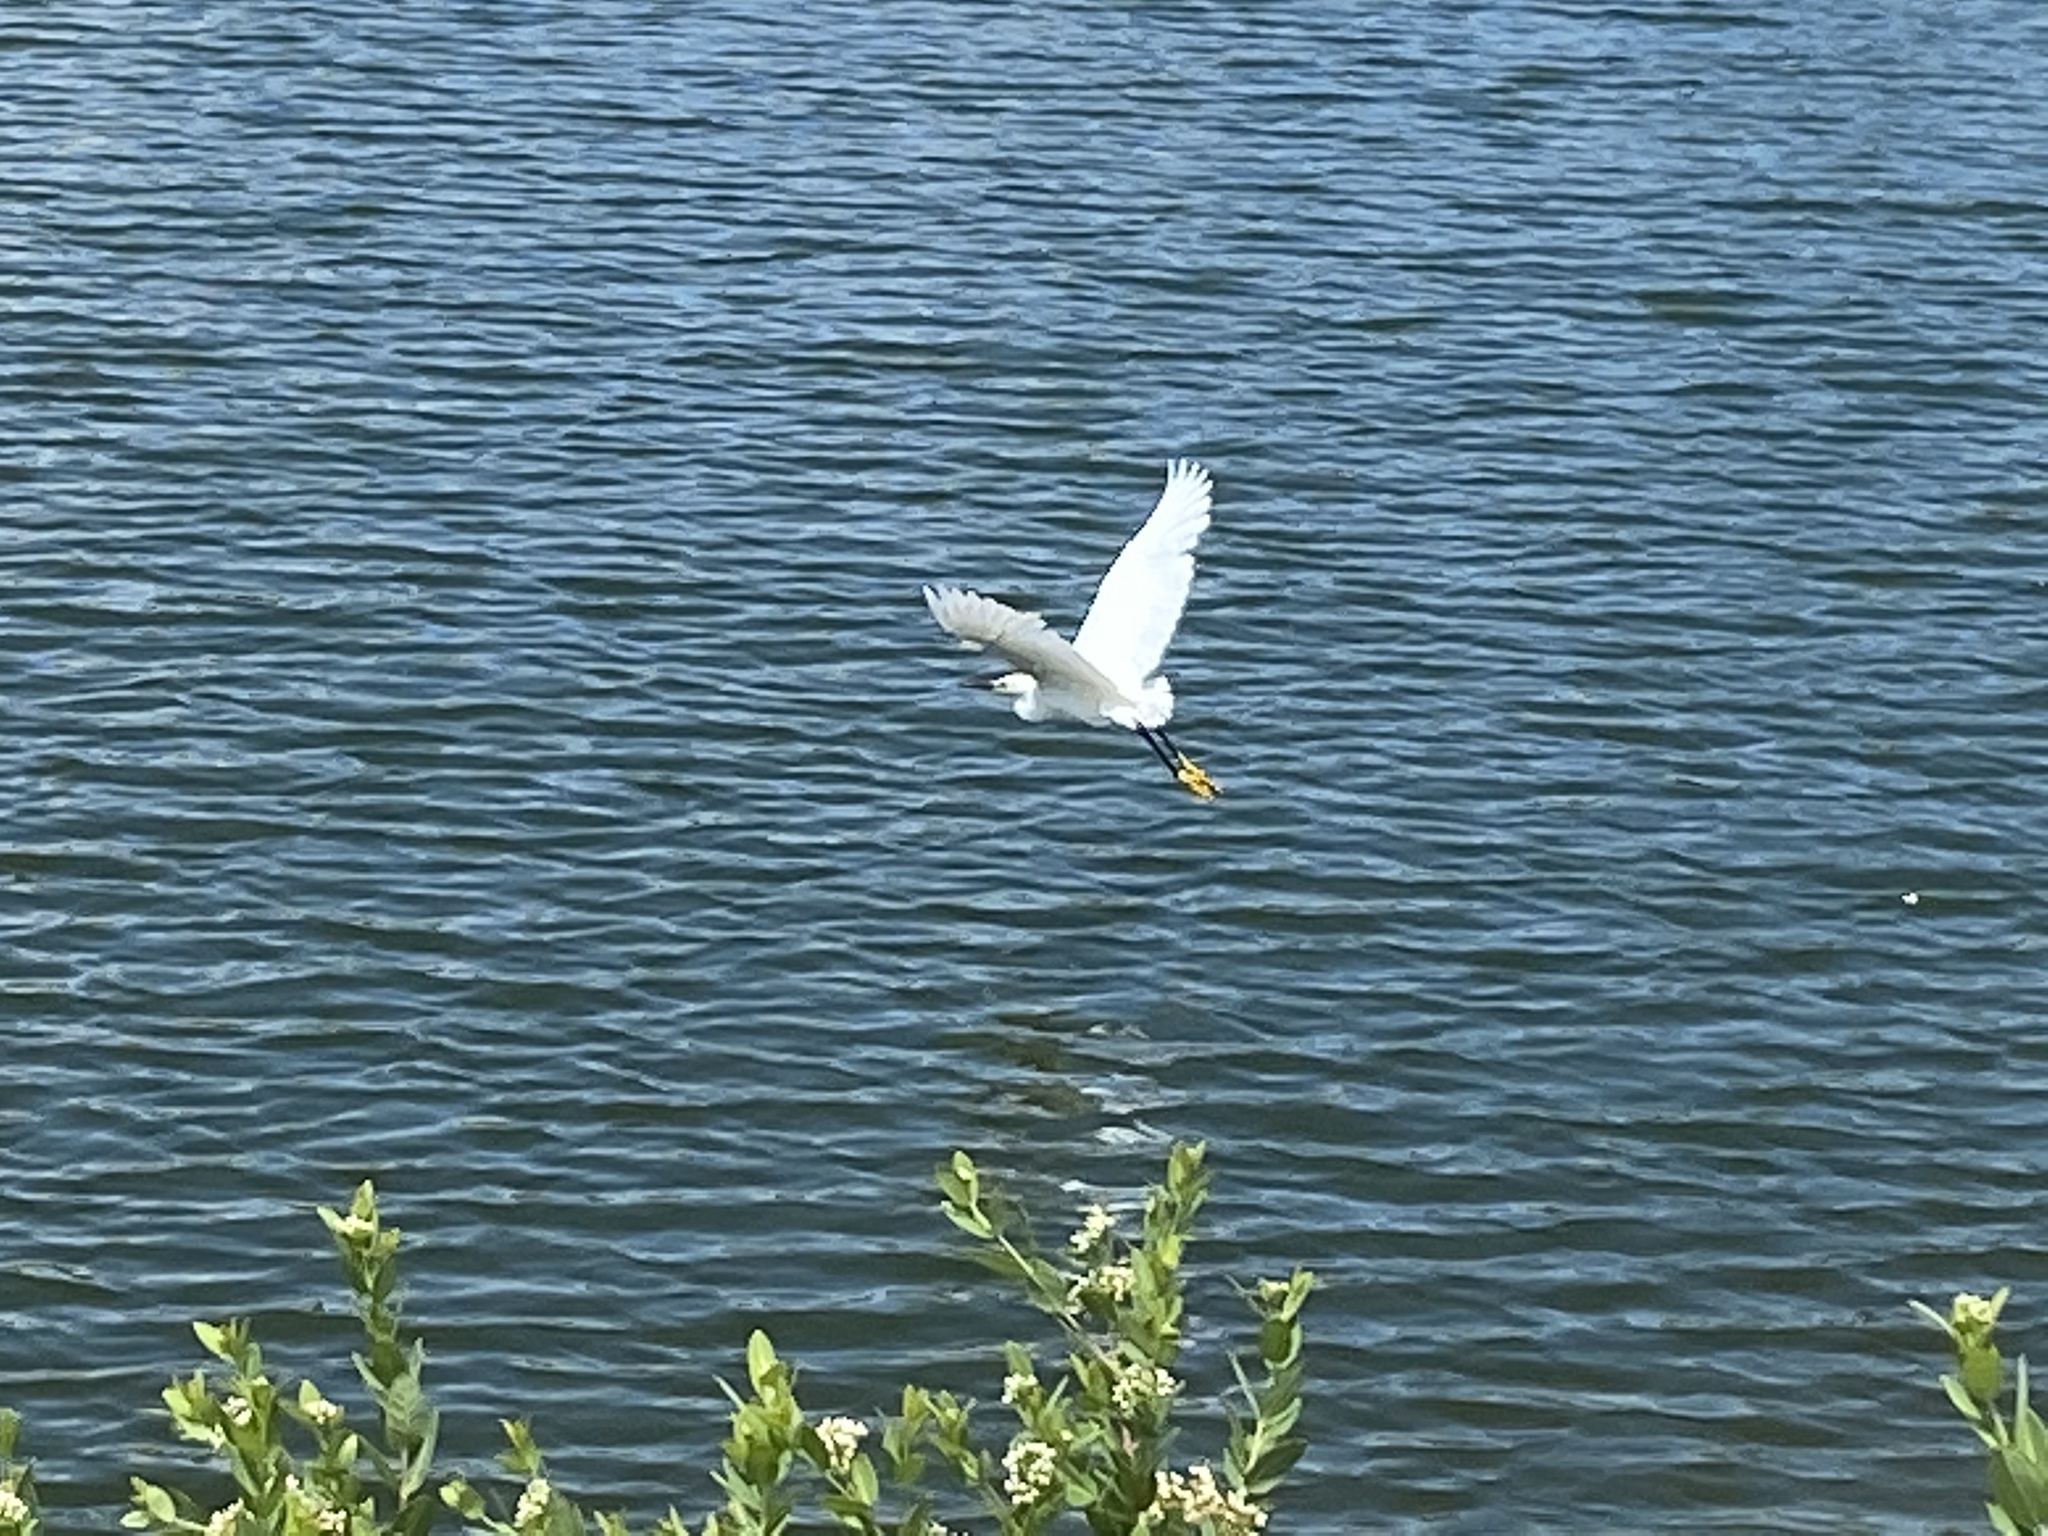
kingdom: Animalia
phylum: Chordata
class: Aves
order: Pelecaniformes
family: Ardeidae
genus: Egretta
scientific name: Egretta thula
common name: Snowy egret
